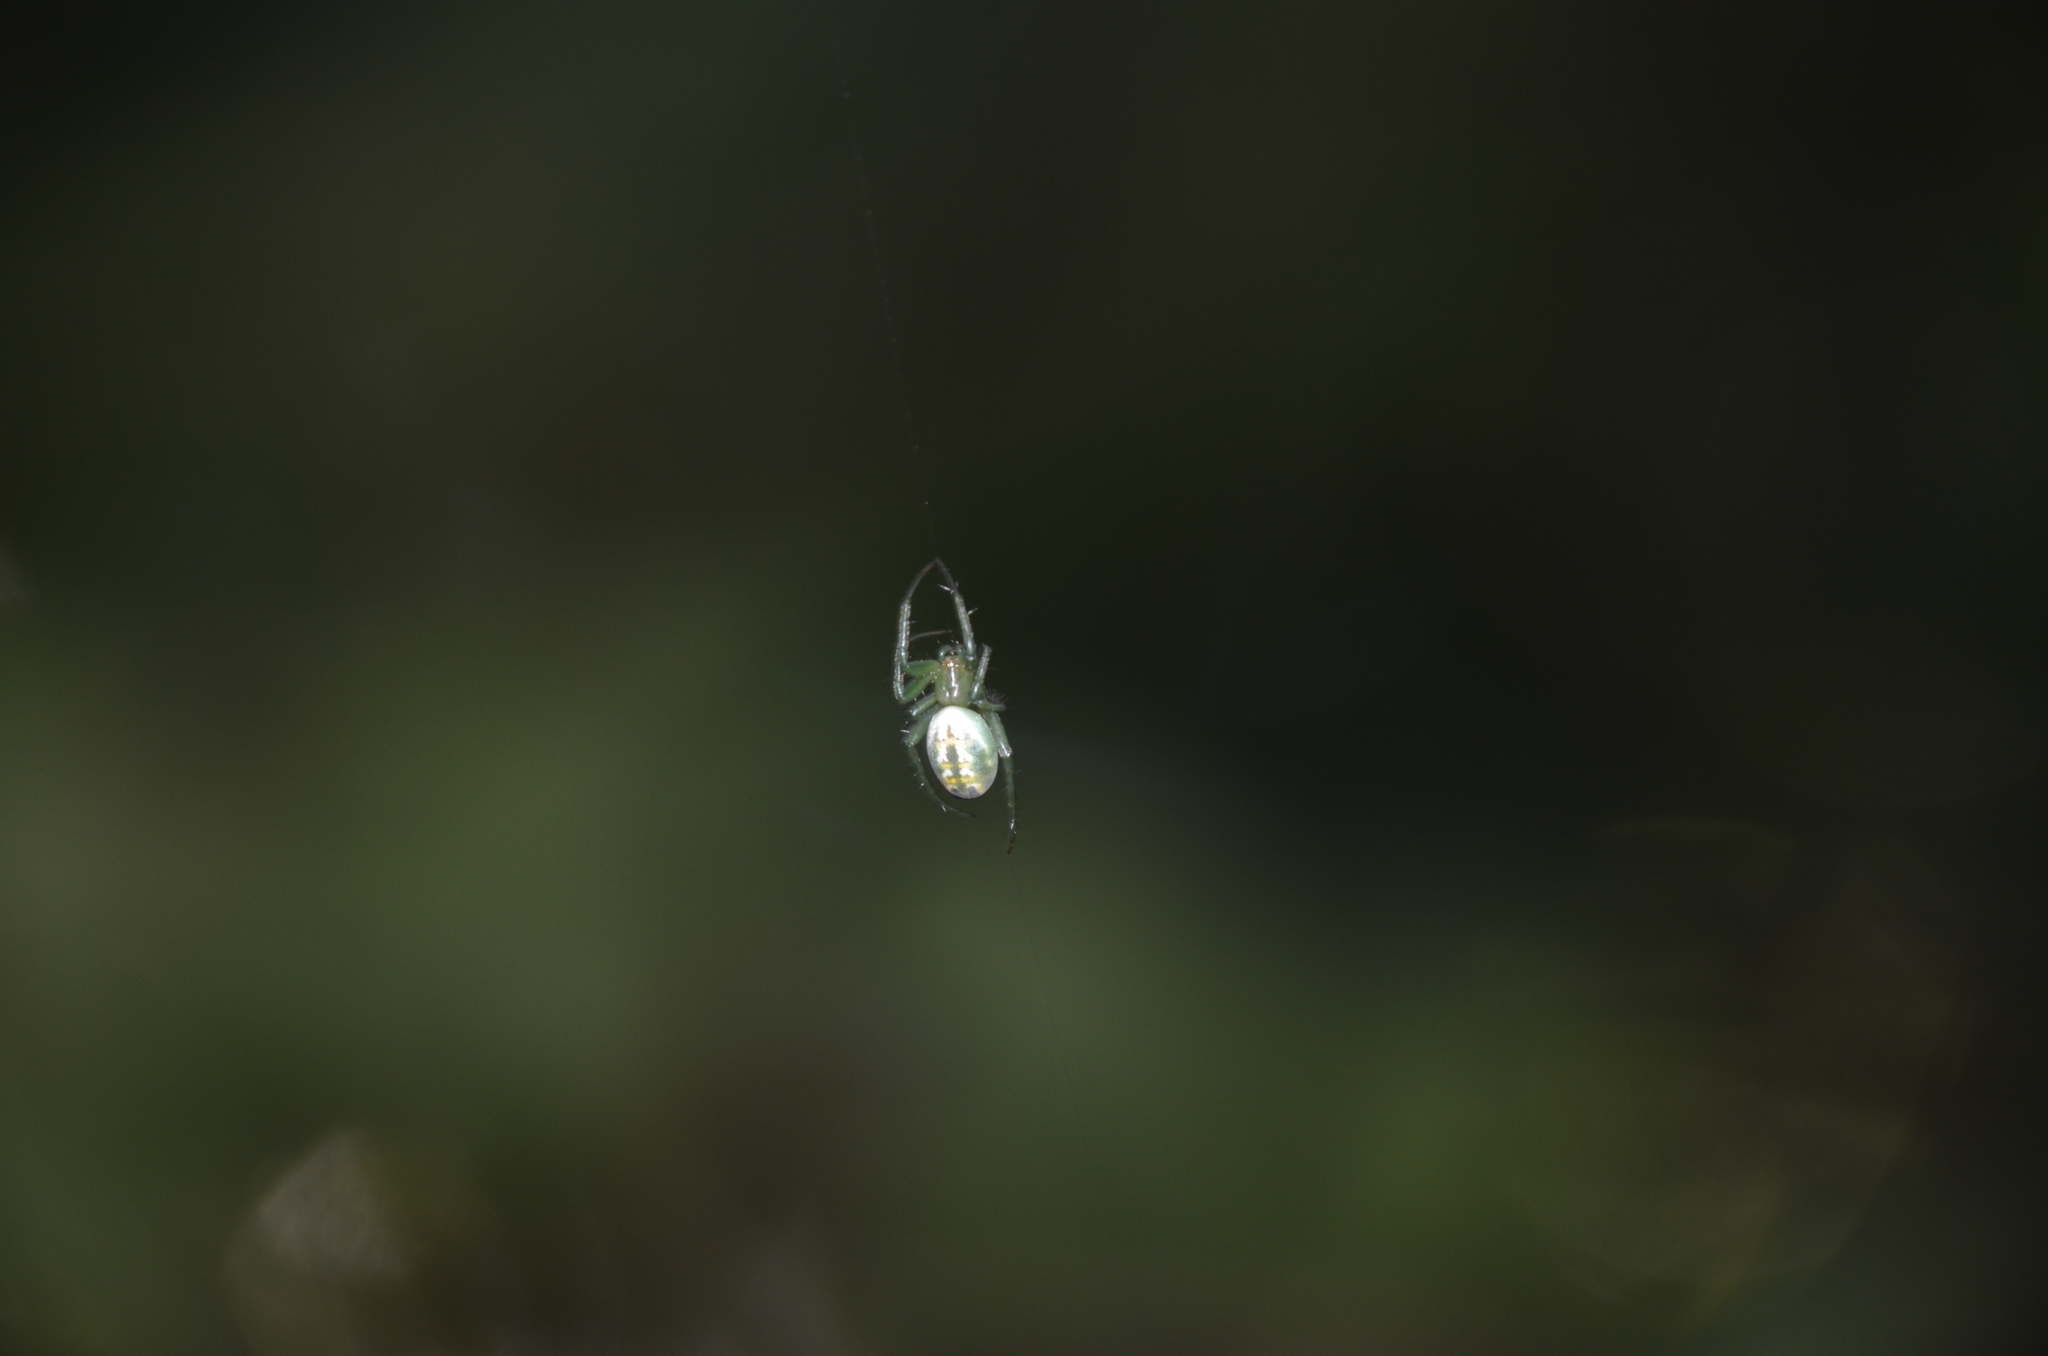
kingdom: Animalia
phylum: Arthropoda
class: Arachnida
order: Araneae
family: Araneidae
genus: Mangora
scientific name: Mangora lactea
